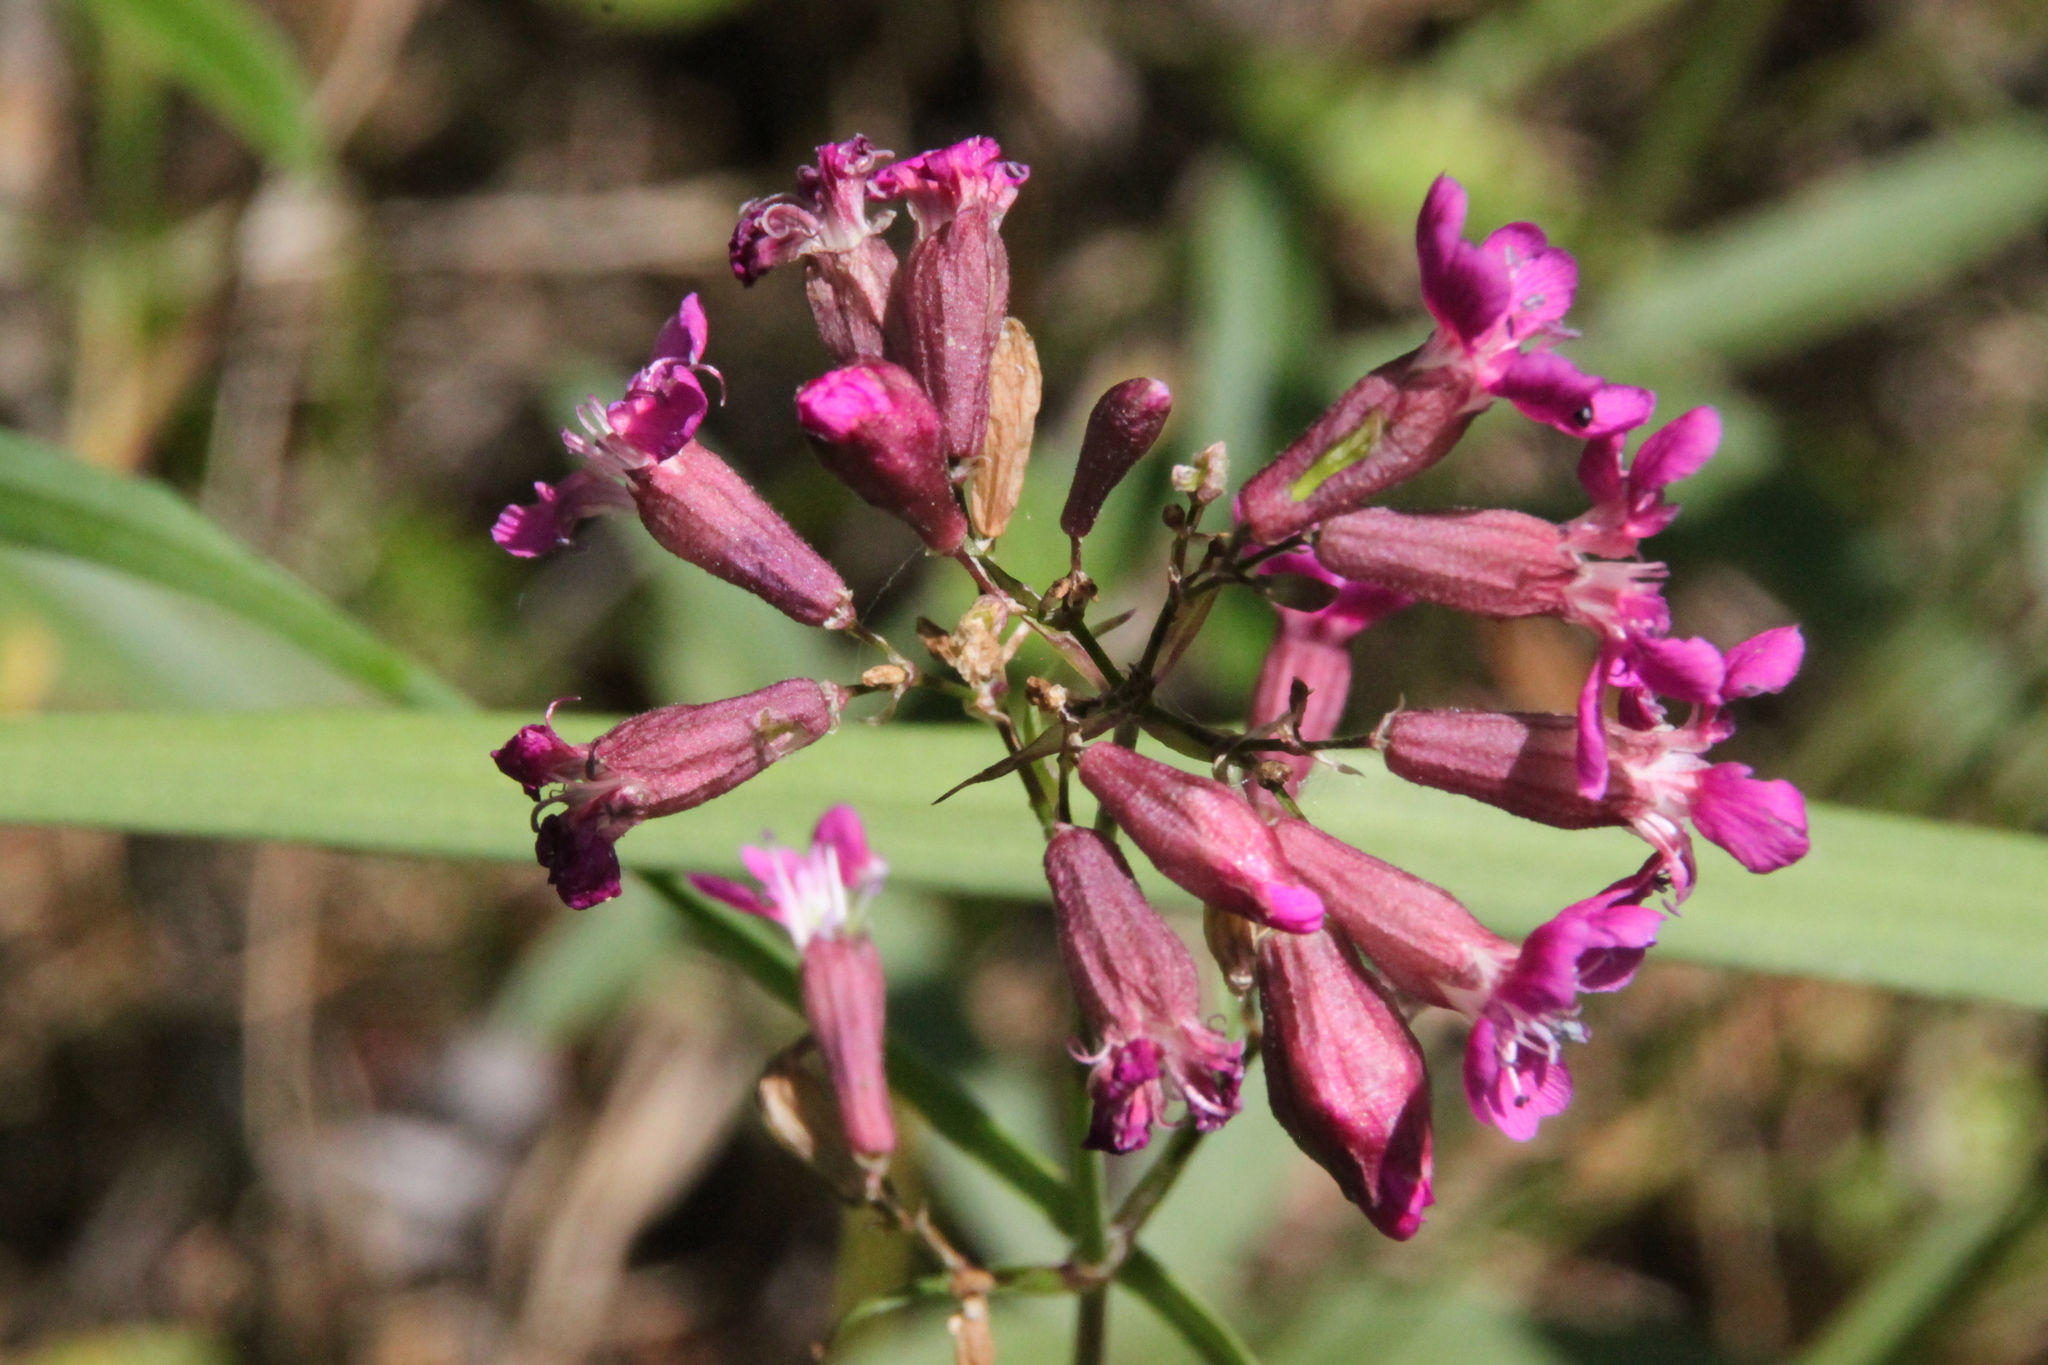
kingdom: Plantae
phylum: Tracheophyta
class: Magnoliopsida
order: Caryophyllales
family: Caryophyllaceae
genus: Viscaria
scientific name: Viscaria vulgaris
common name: Clammy campion
